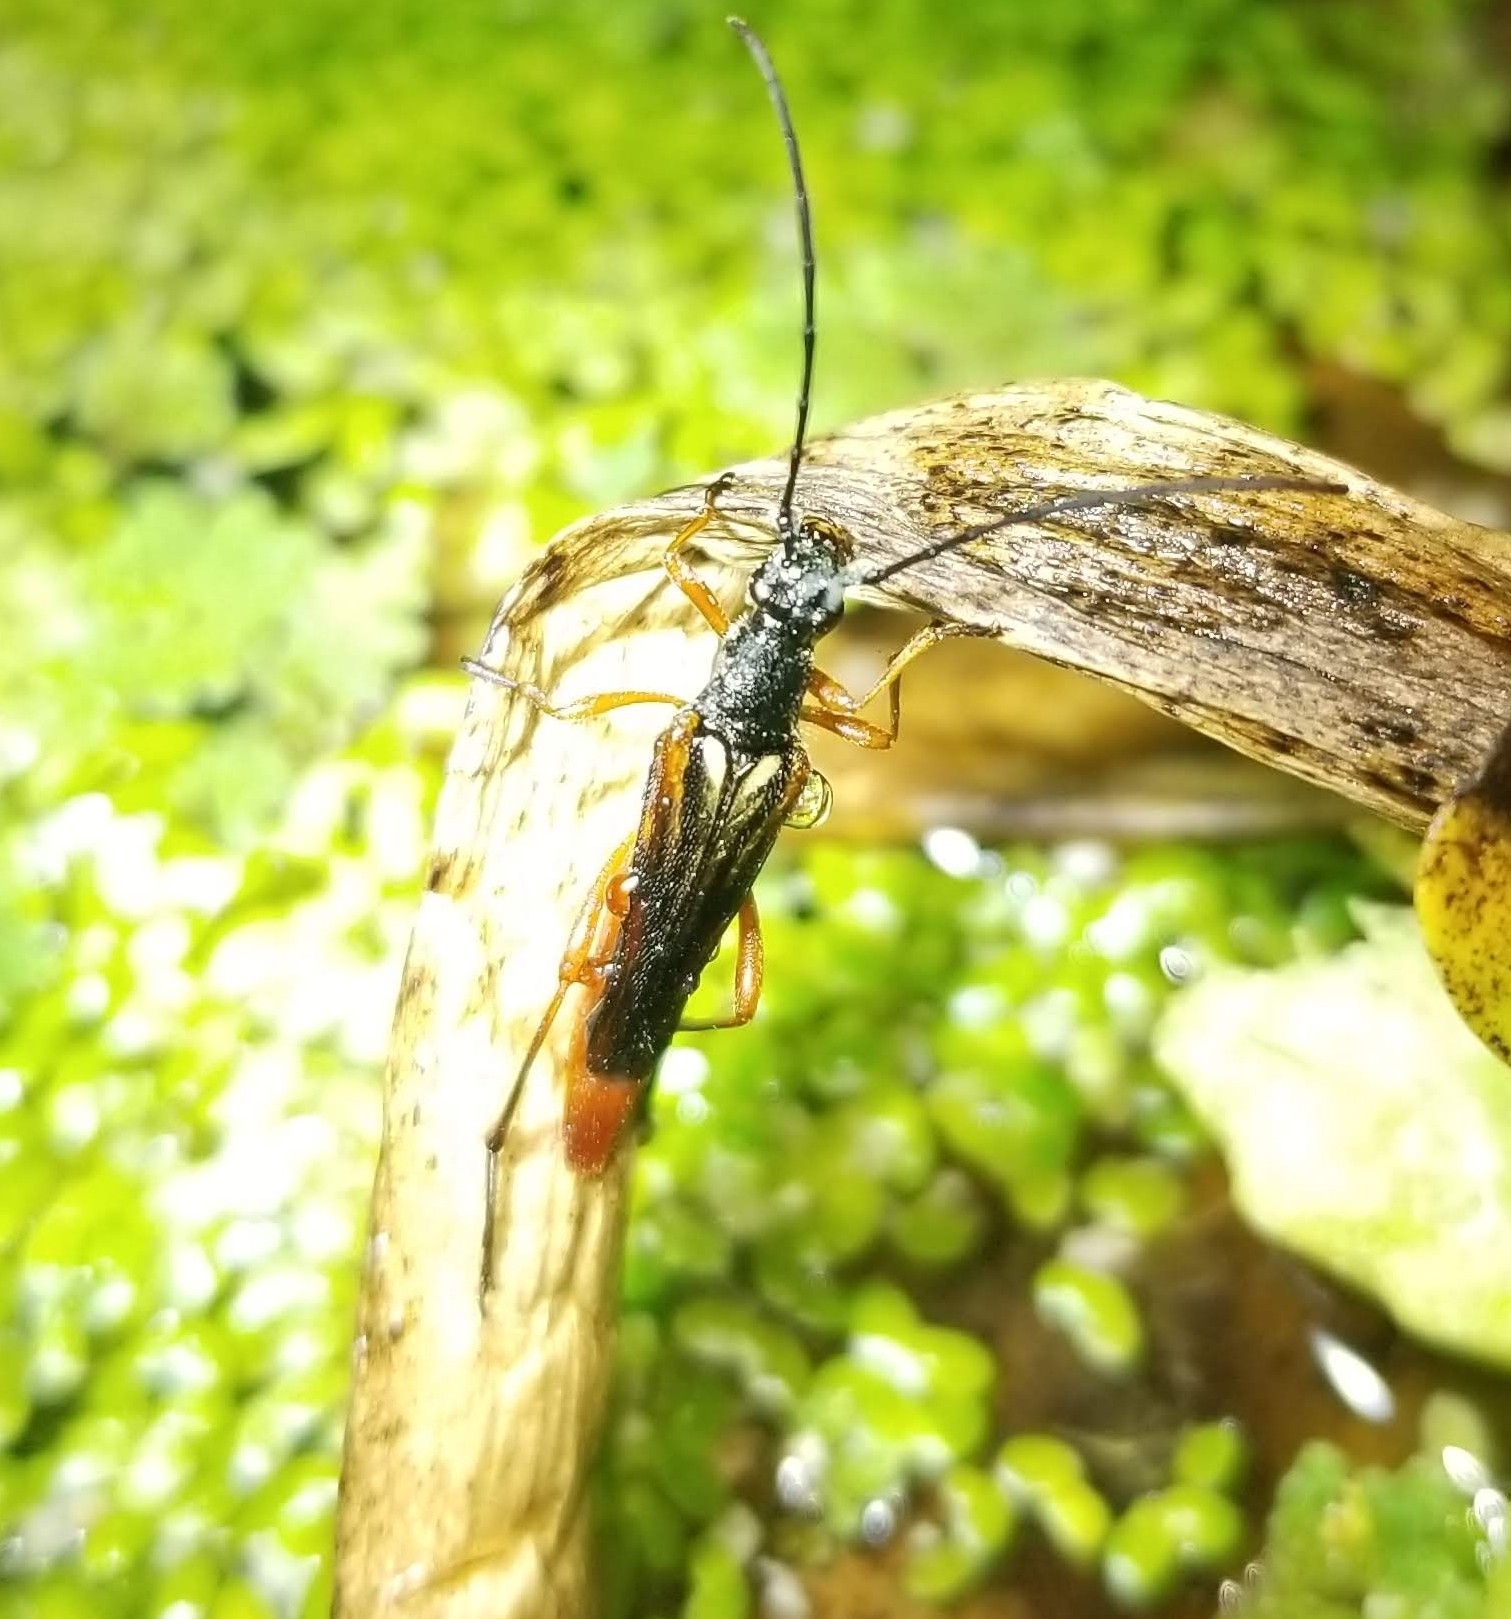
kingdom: Animalia
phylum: Arthropoda
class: Insecta
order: Coleoptera
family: Cerambycidae
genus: Neobellamira
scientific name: Neobellamira delicata
